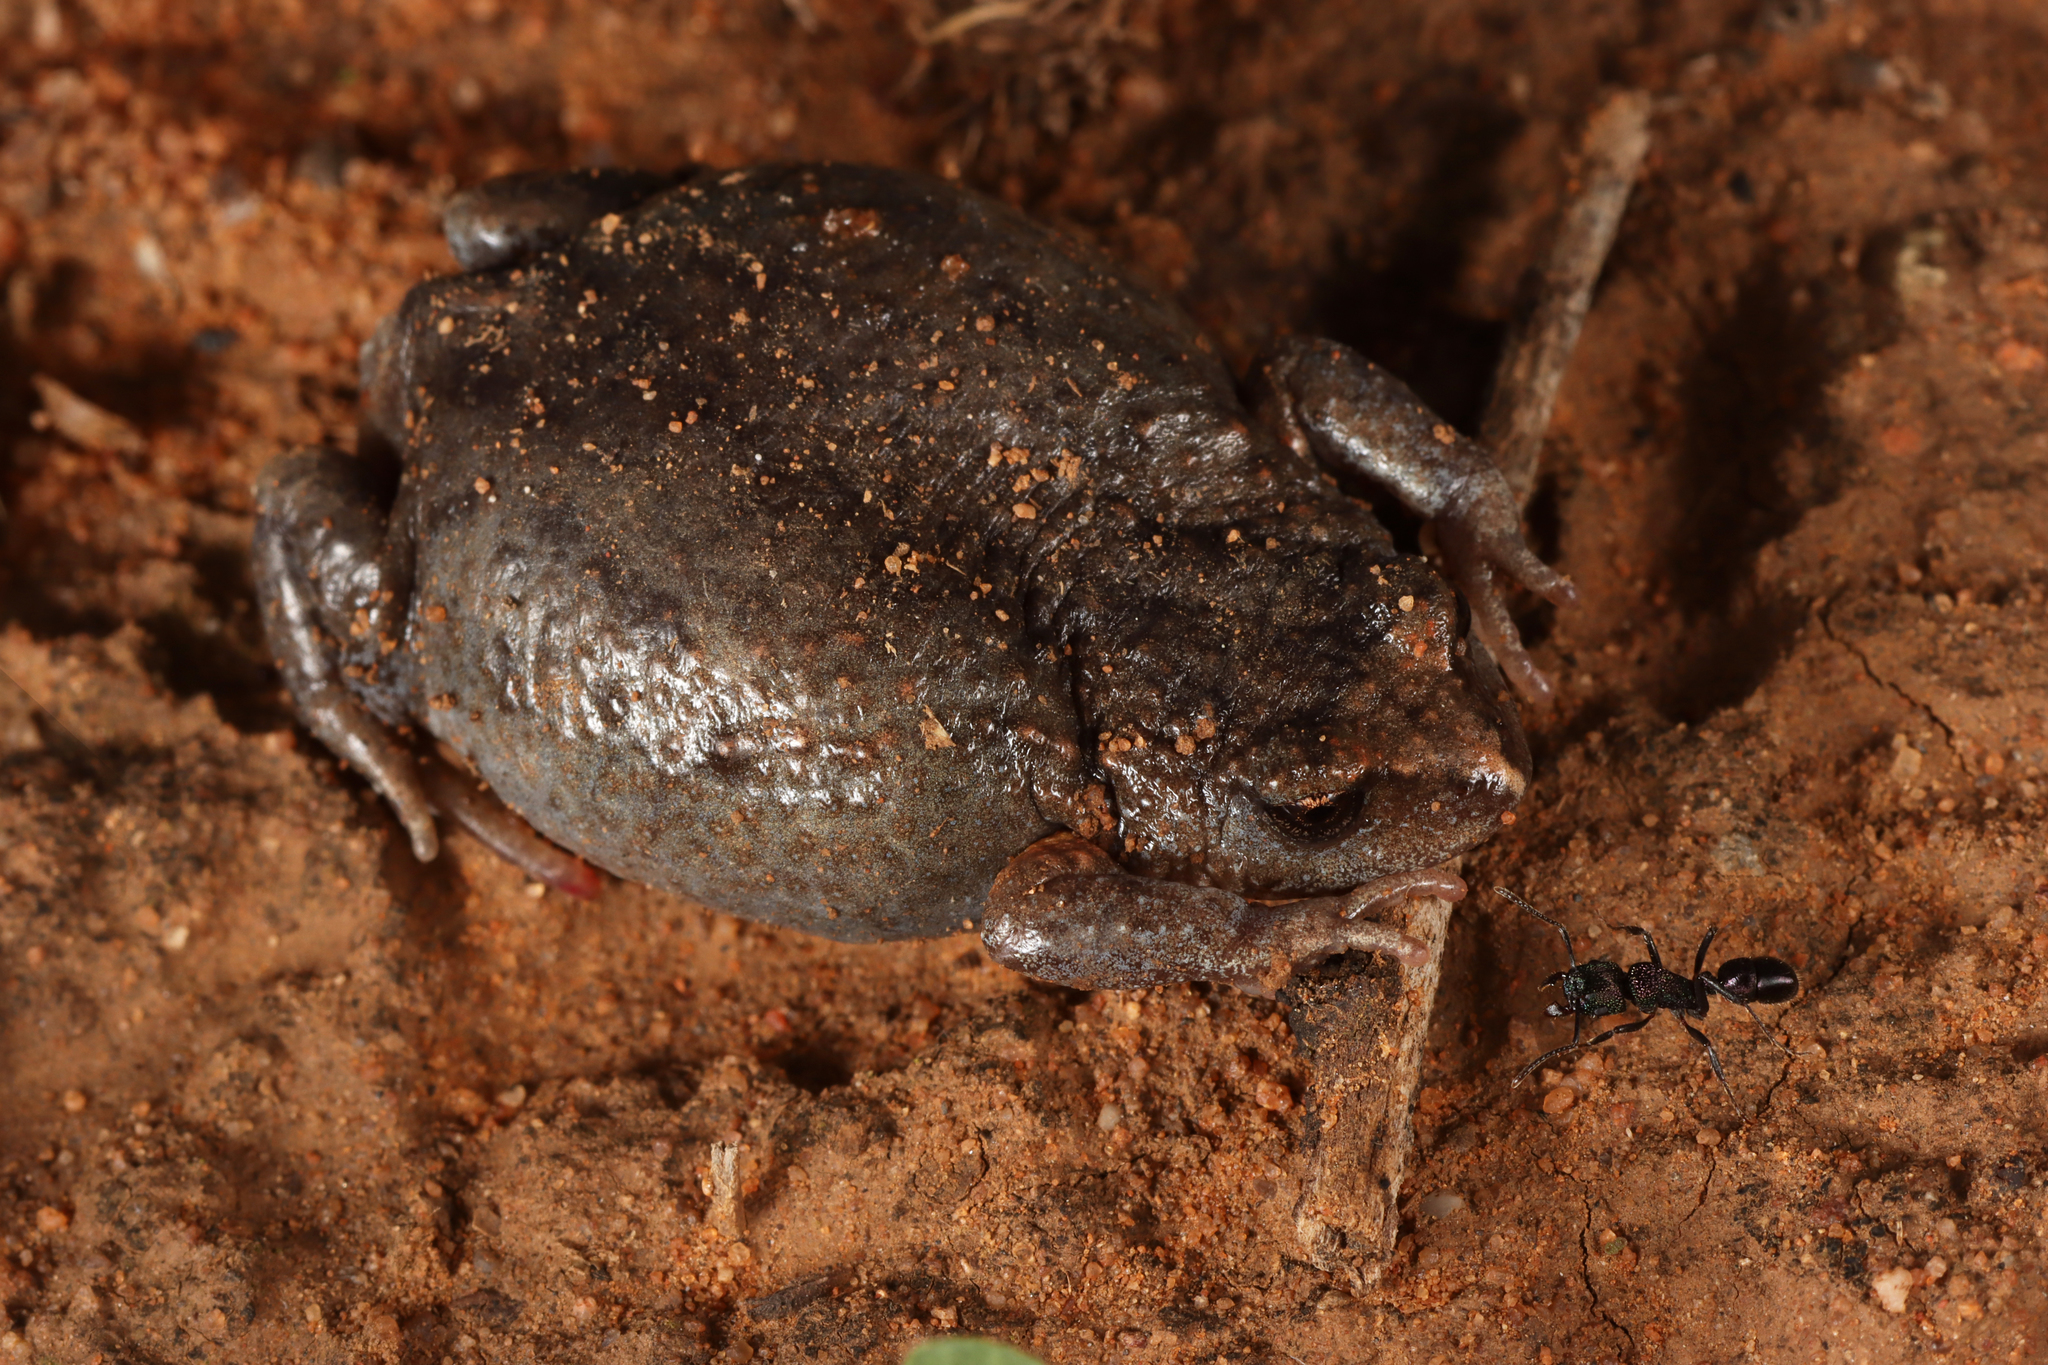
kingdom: Animalia
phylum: Chordata
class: Amphibia
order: Anura
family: Myobatrachidae
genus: Pseudophryne
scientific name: Pseudophryne bibronii
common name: Bibron’s toadlet
